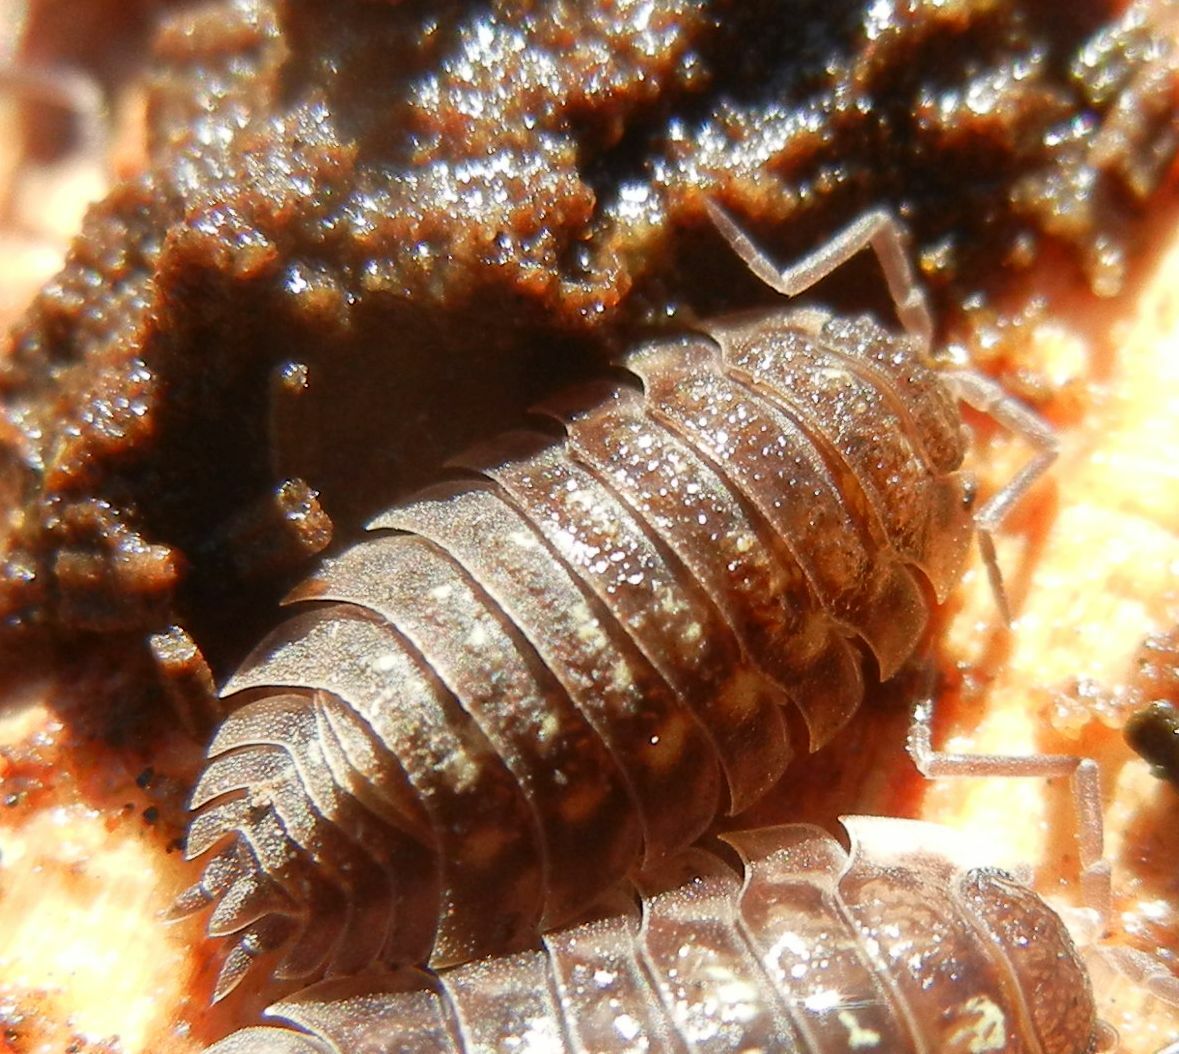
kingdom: Animalia
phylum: Arthropoda
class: Malacostraca
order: Isopoda
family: Oniscidae
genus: Oniscus
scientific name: Oniscus asellus
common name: Common shiny woodlouse
